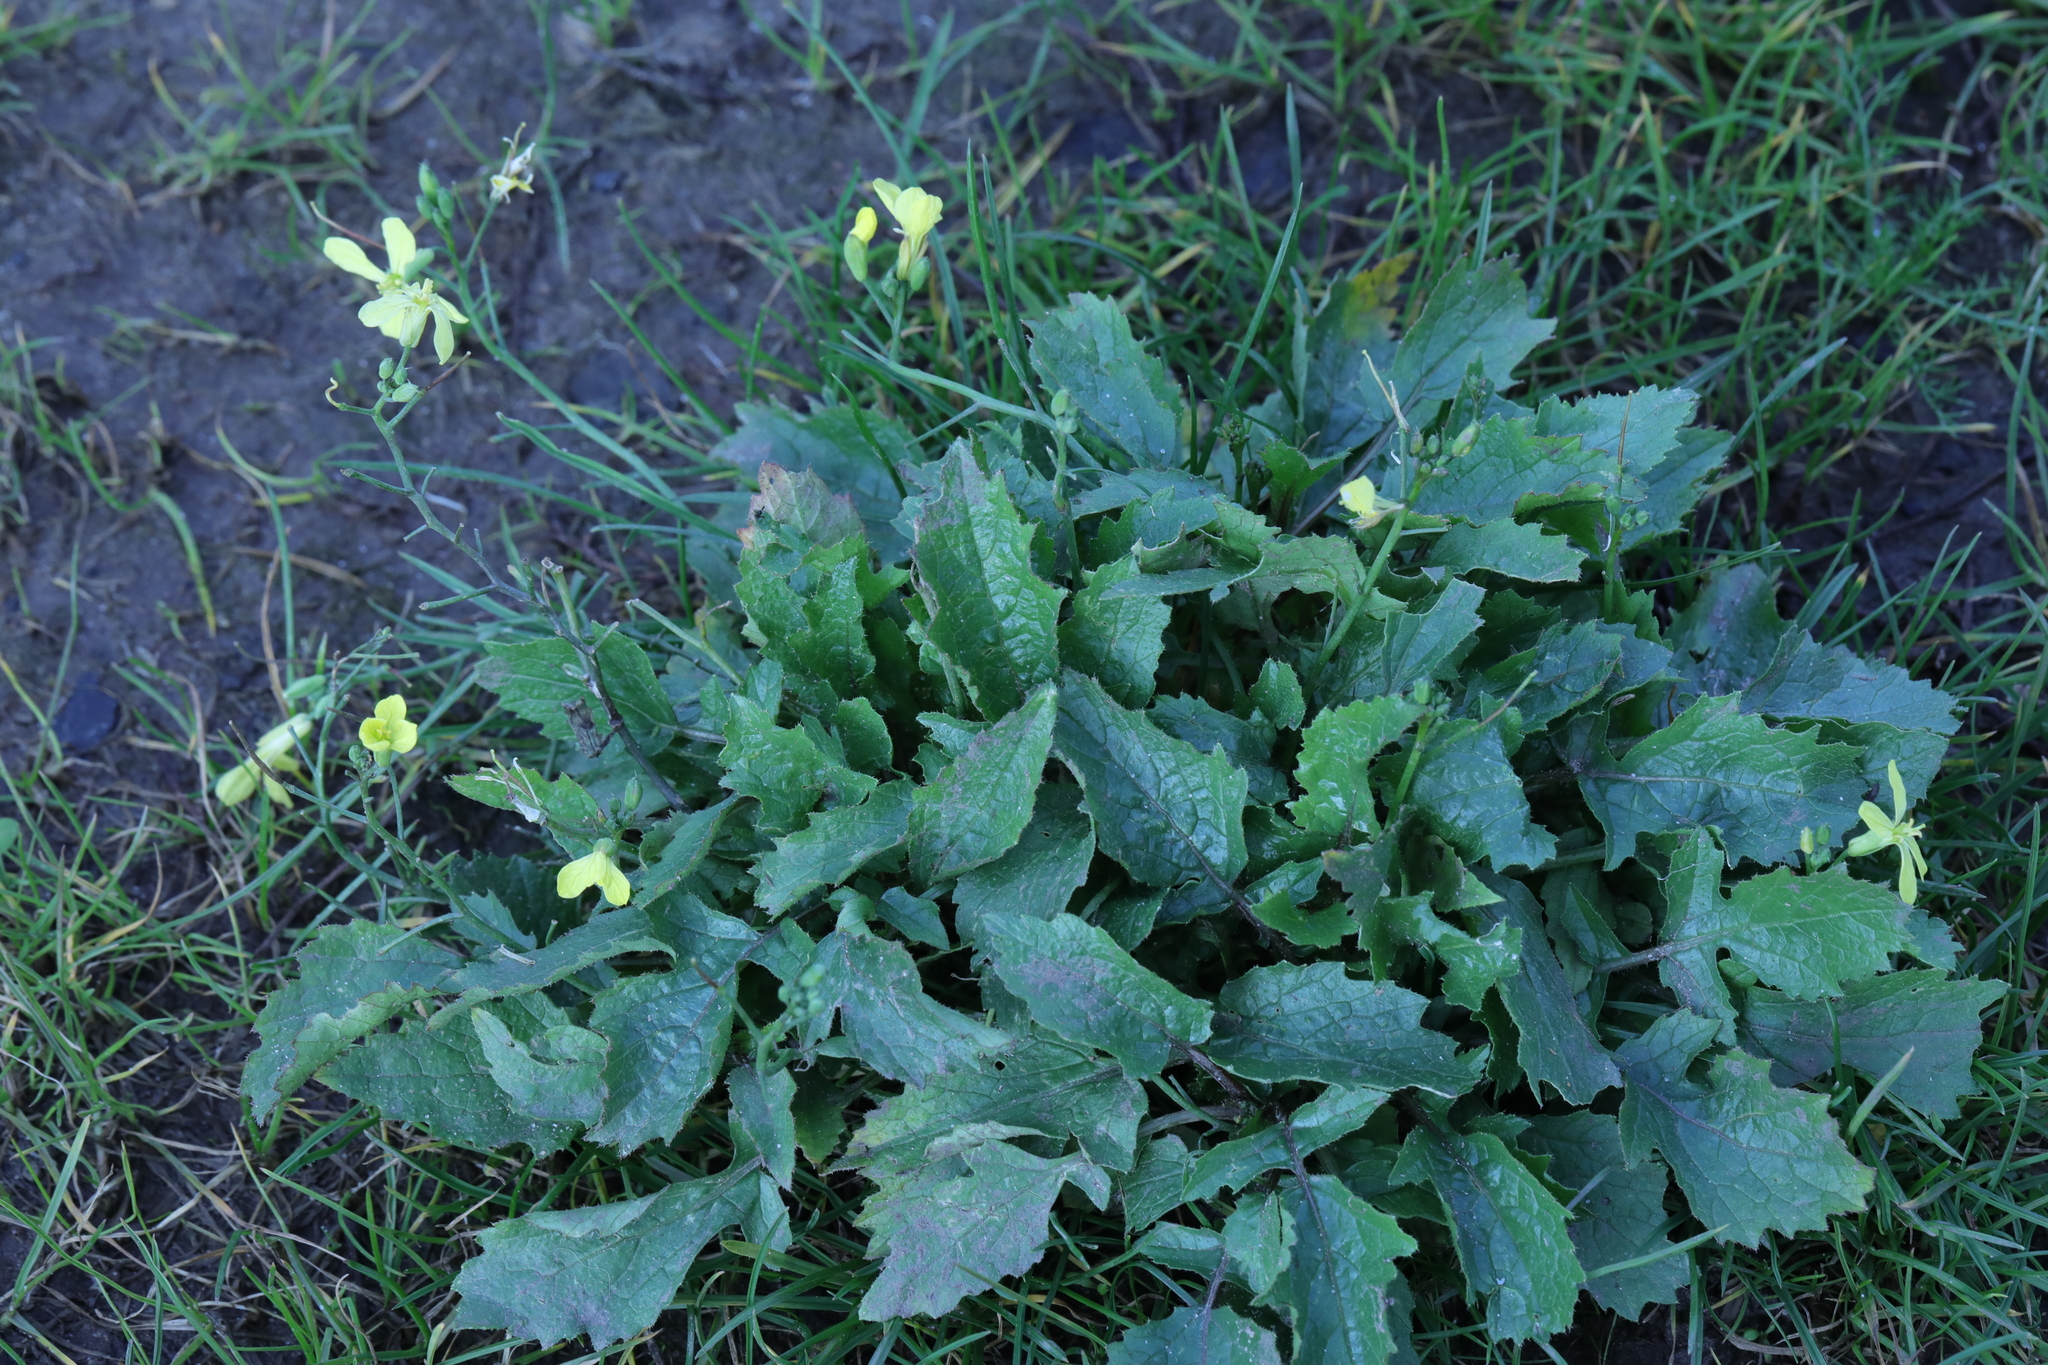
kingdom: Plantae
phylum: Tracheophyta
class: Magnoliopsida
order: Brassicales
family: Brassicaceae
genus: Raphanus
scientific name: Raphanus raphanistrum
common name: Wild radish
